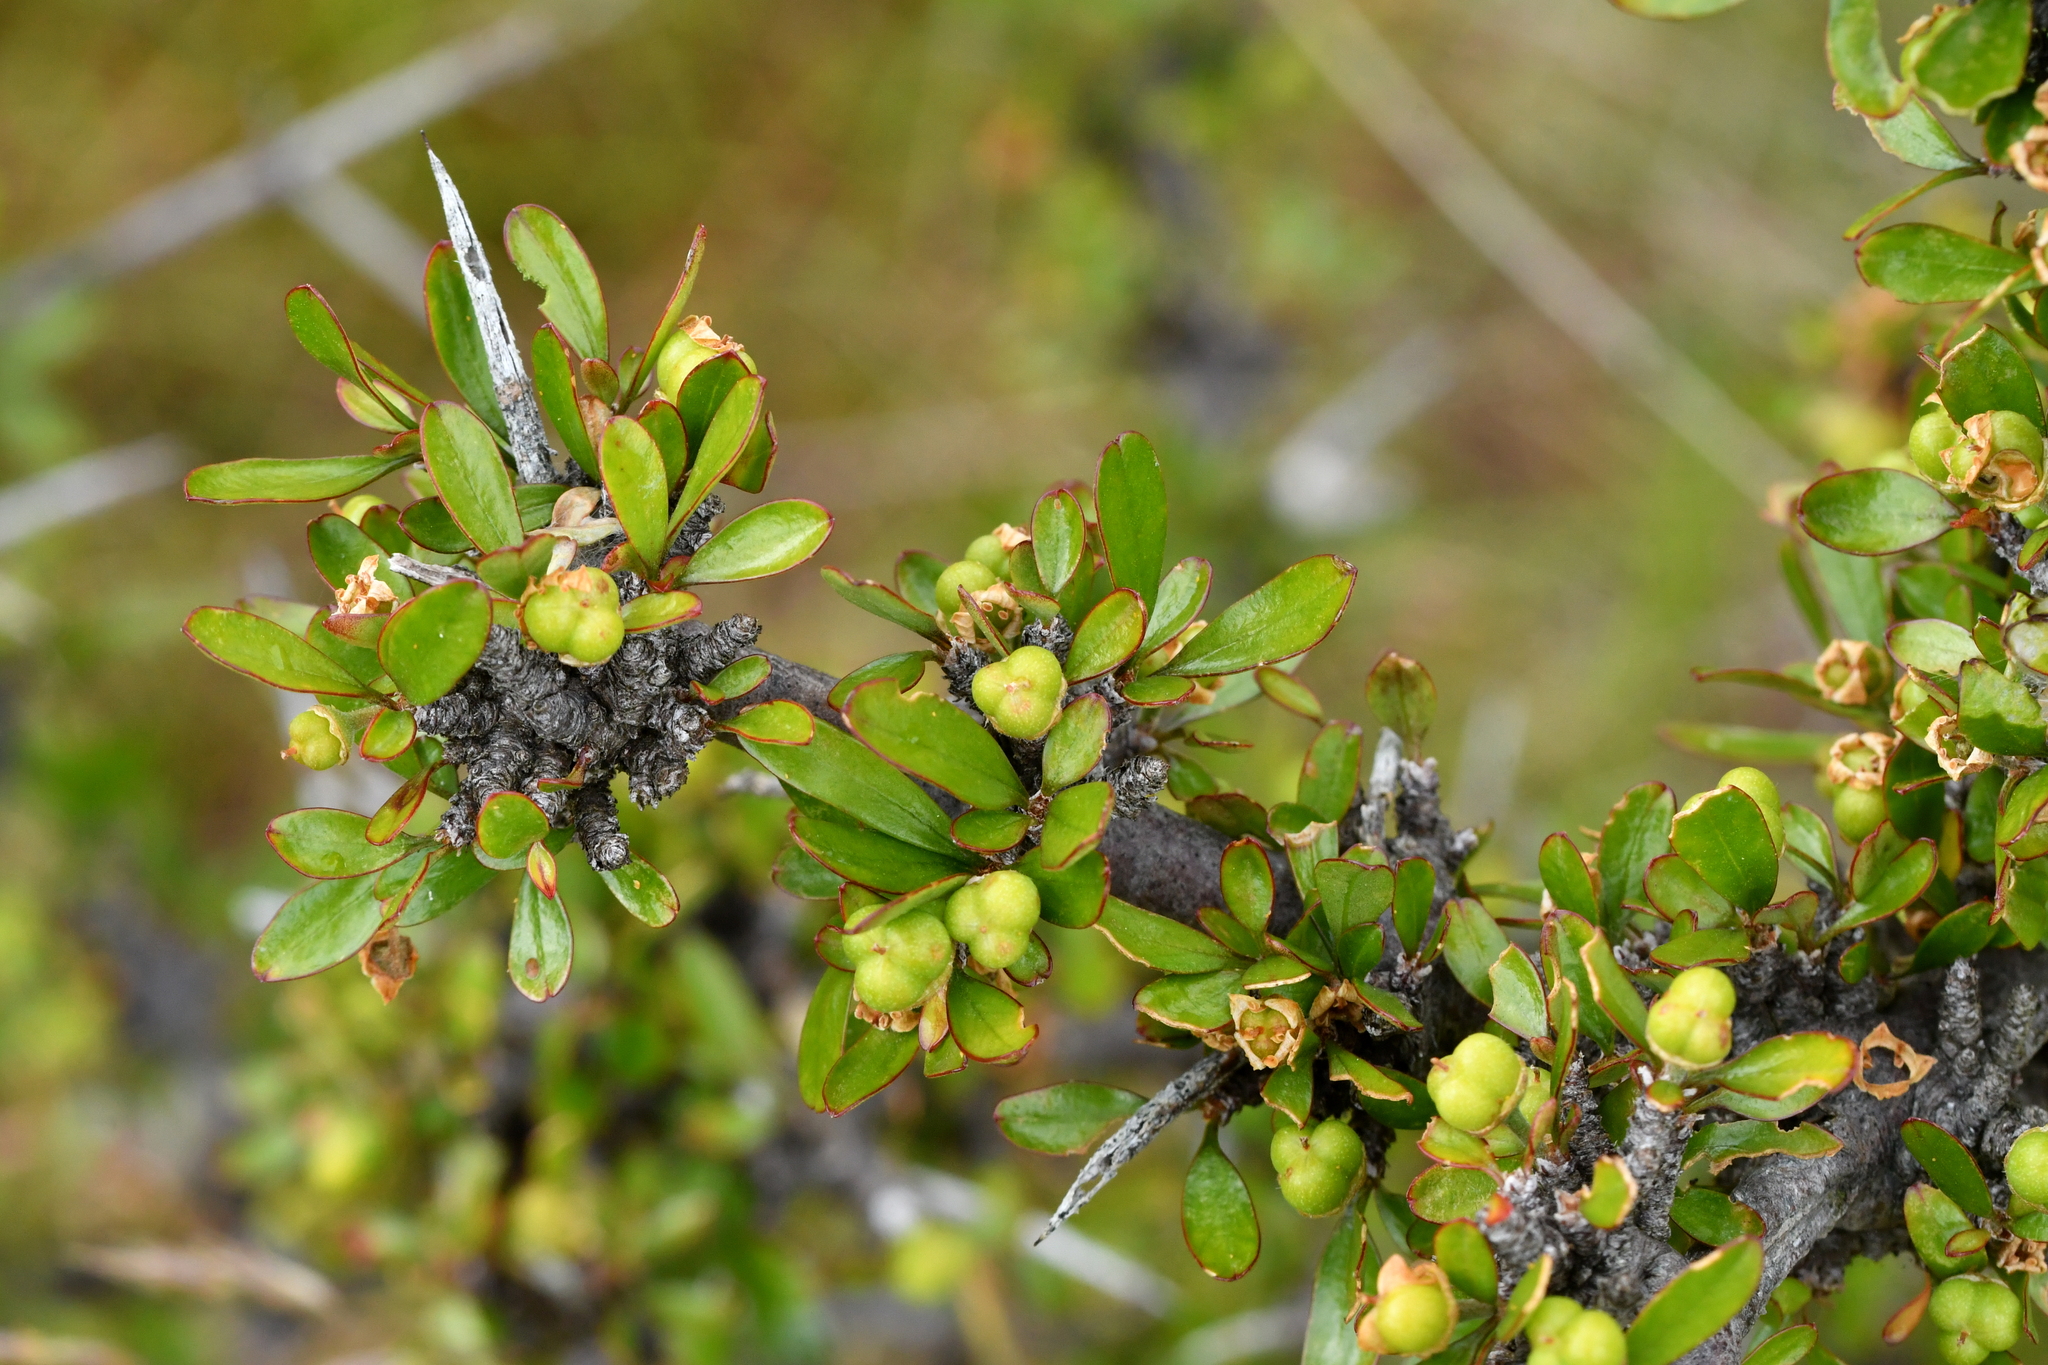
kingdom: Plantae
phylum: Tracheophyta
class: Magnoliopsida
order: Rosales
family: Rhamnaceae
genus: Discaria
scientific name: Discaria toumatou
